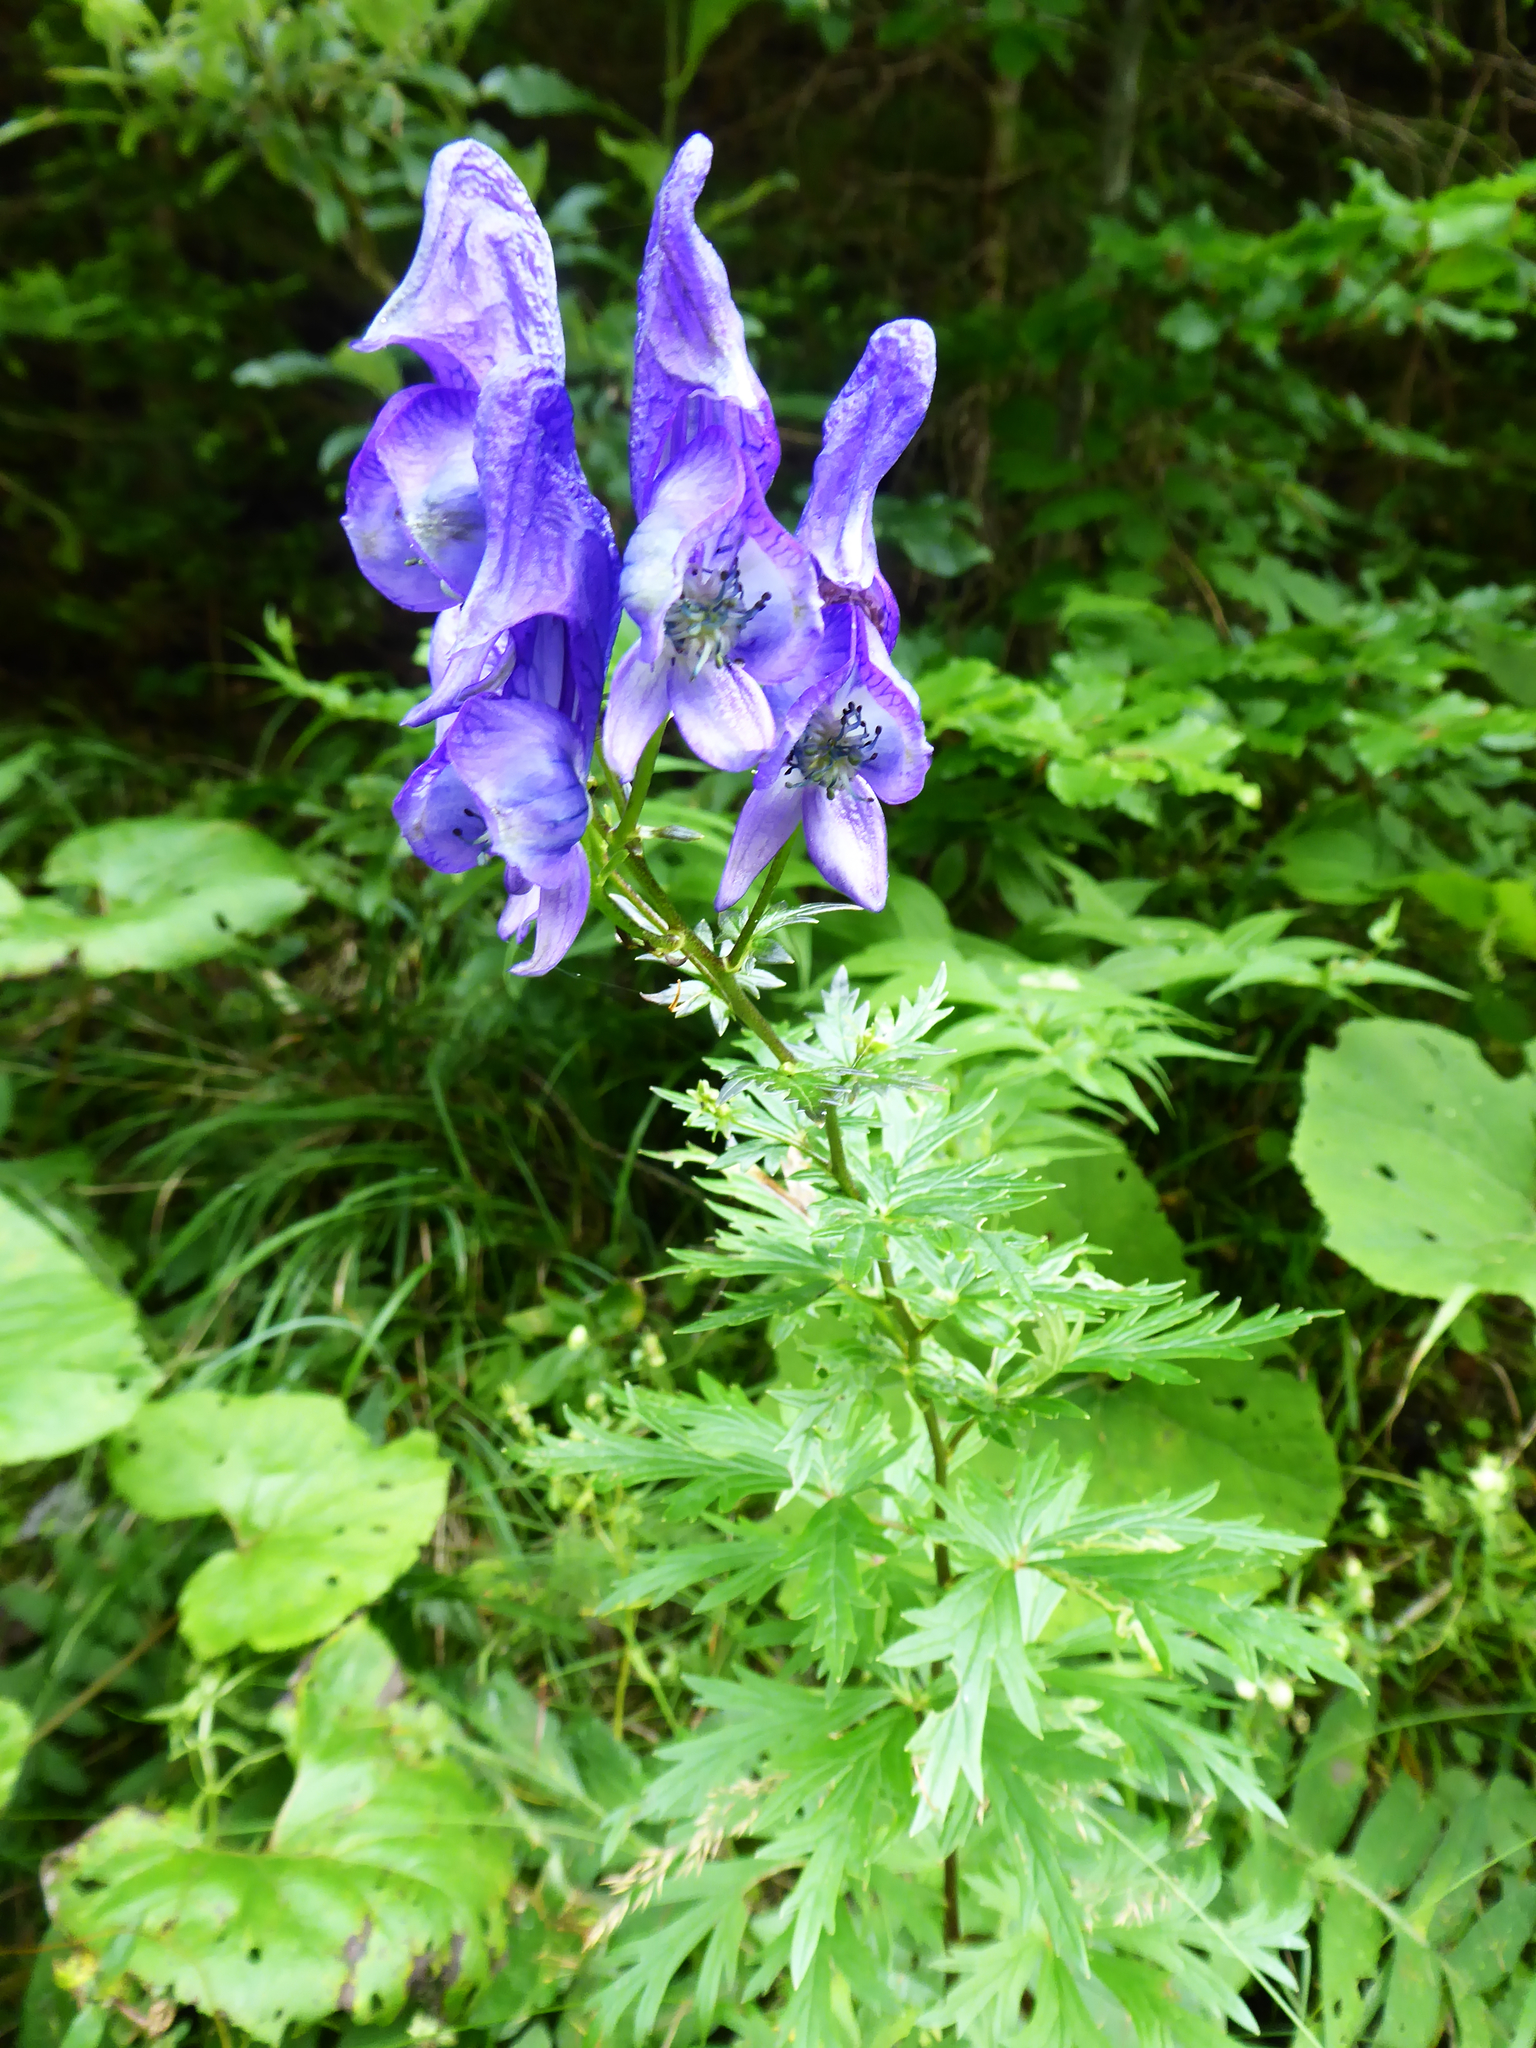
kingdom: Plantae
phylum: Tracheophyta
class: Magnoliopsida
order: Ranunculales
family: Ranunculaceae
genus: Aconitum
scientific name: Aconitum variegatum
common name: Manchurian monkshood
